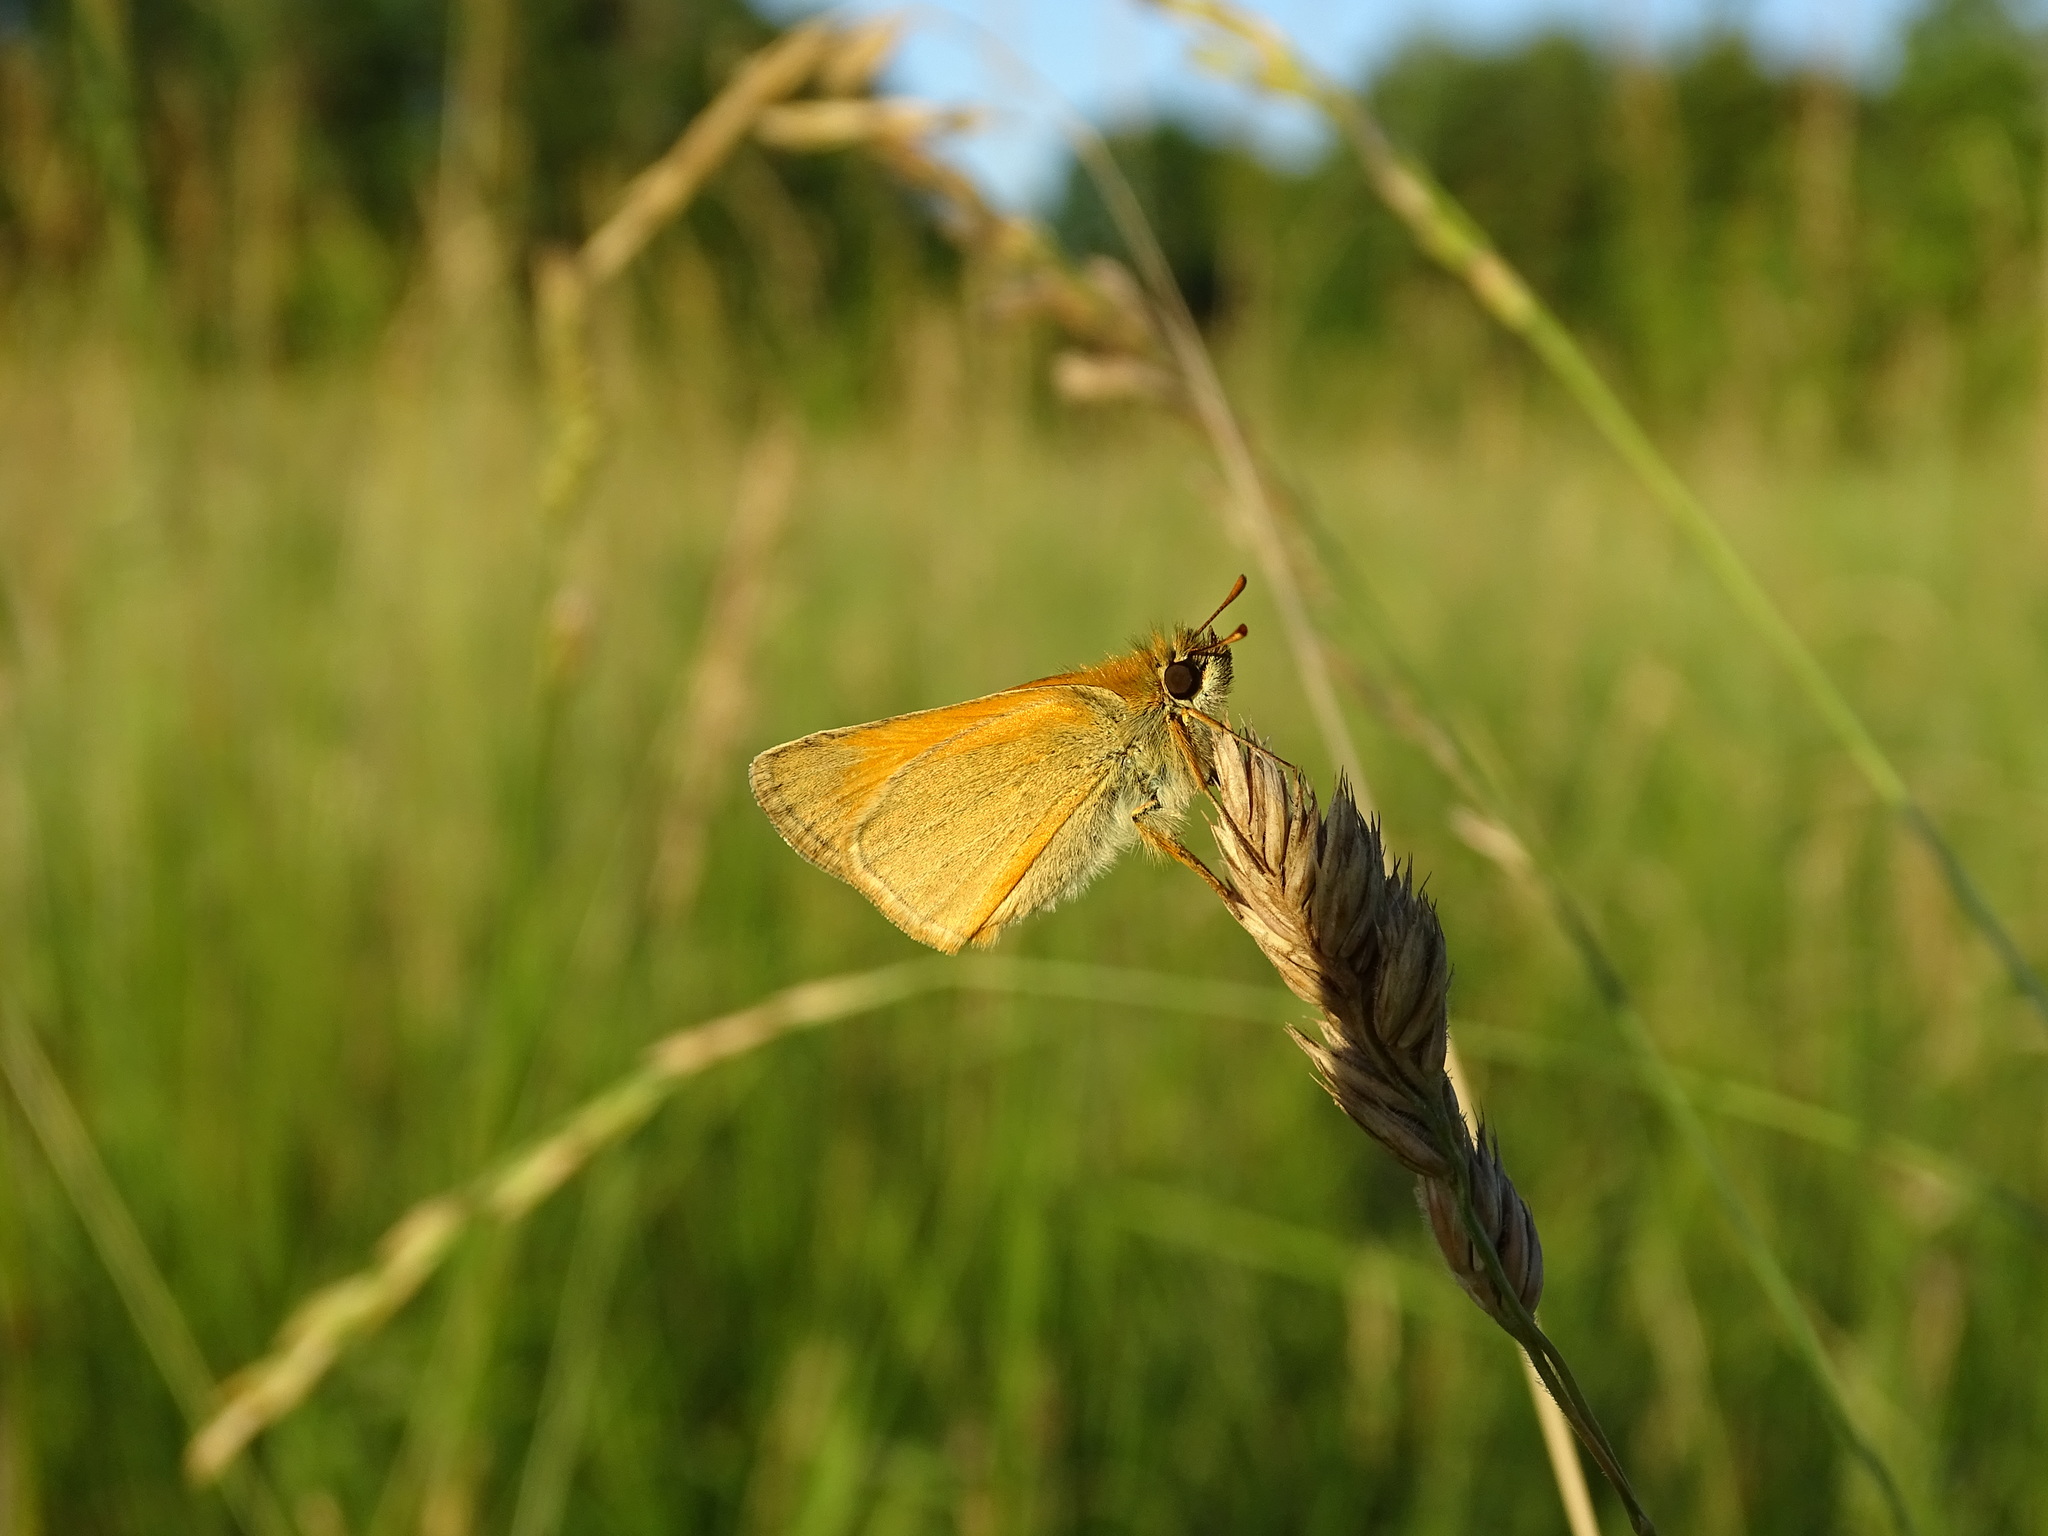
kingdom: Animalia
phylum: Arthropoda
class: Insecta
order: Lepidoptera
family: Hesperiidae
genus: Thymelicus
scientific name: Thymelicus sylvestris
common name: Small skipper
